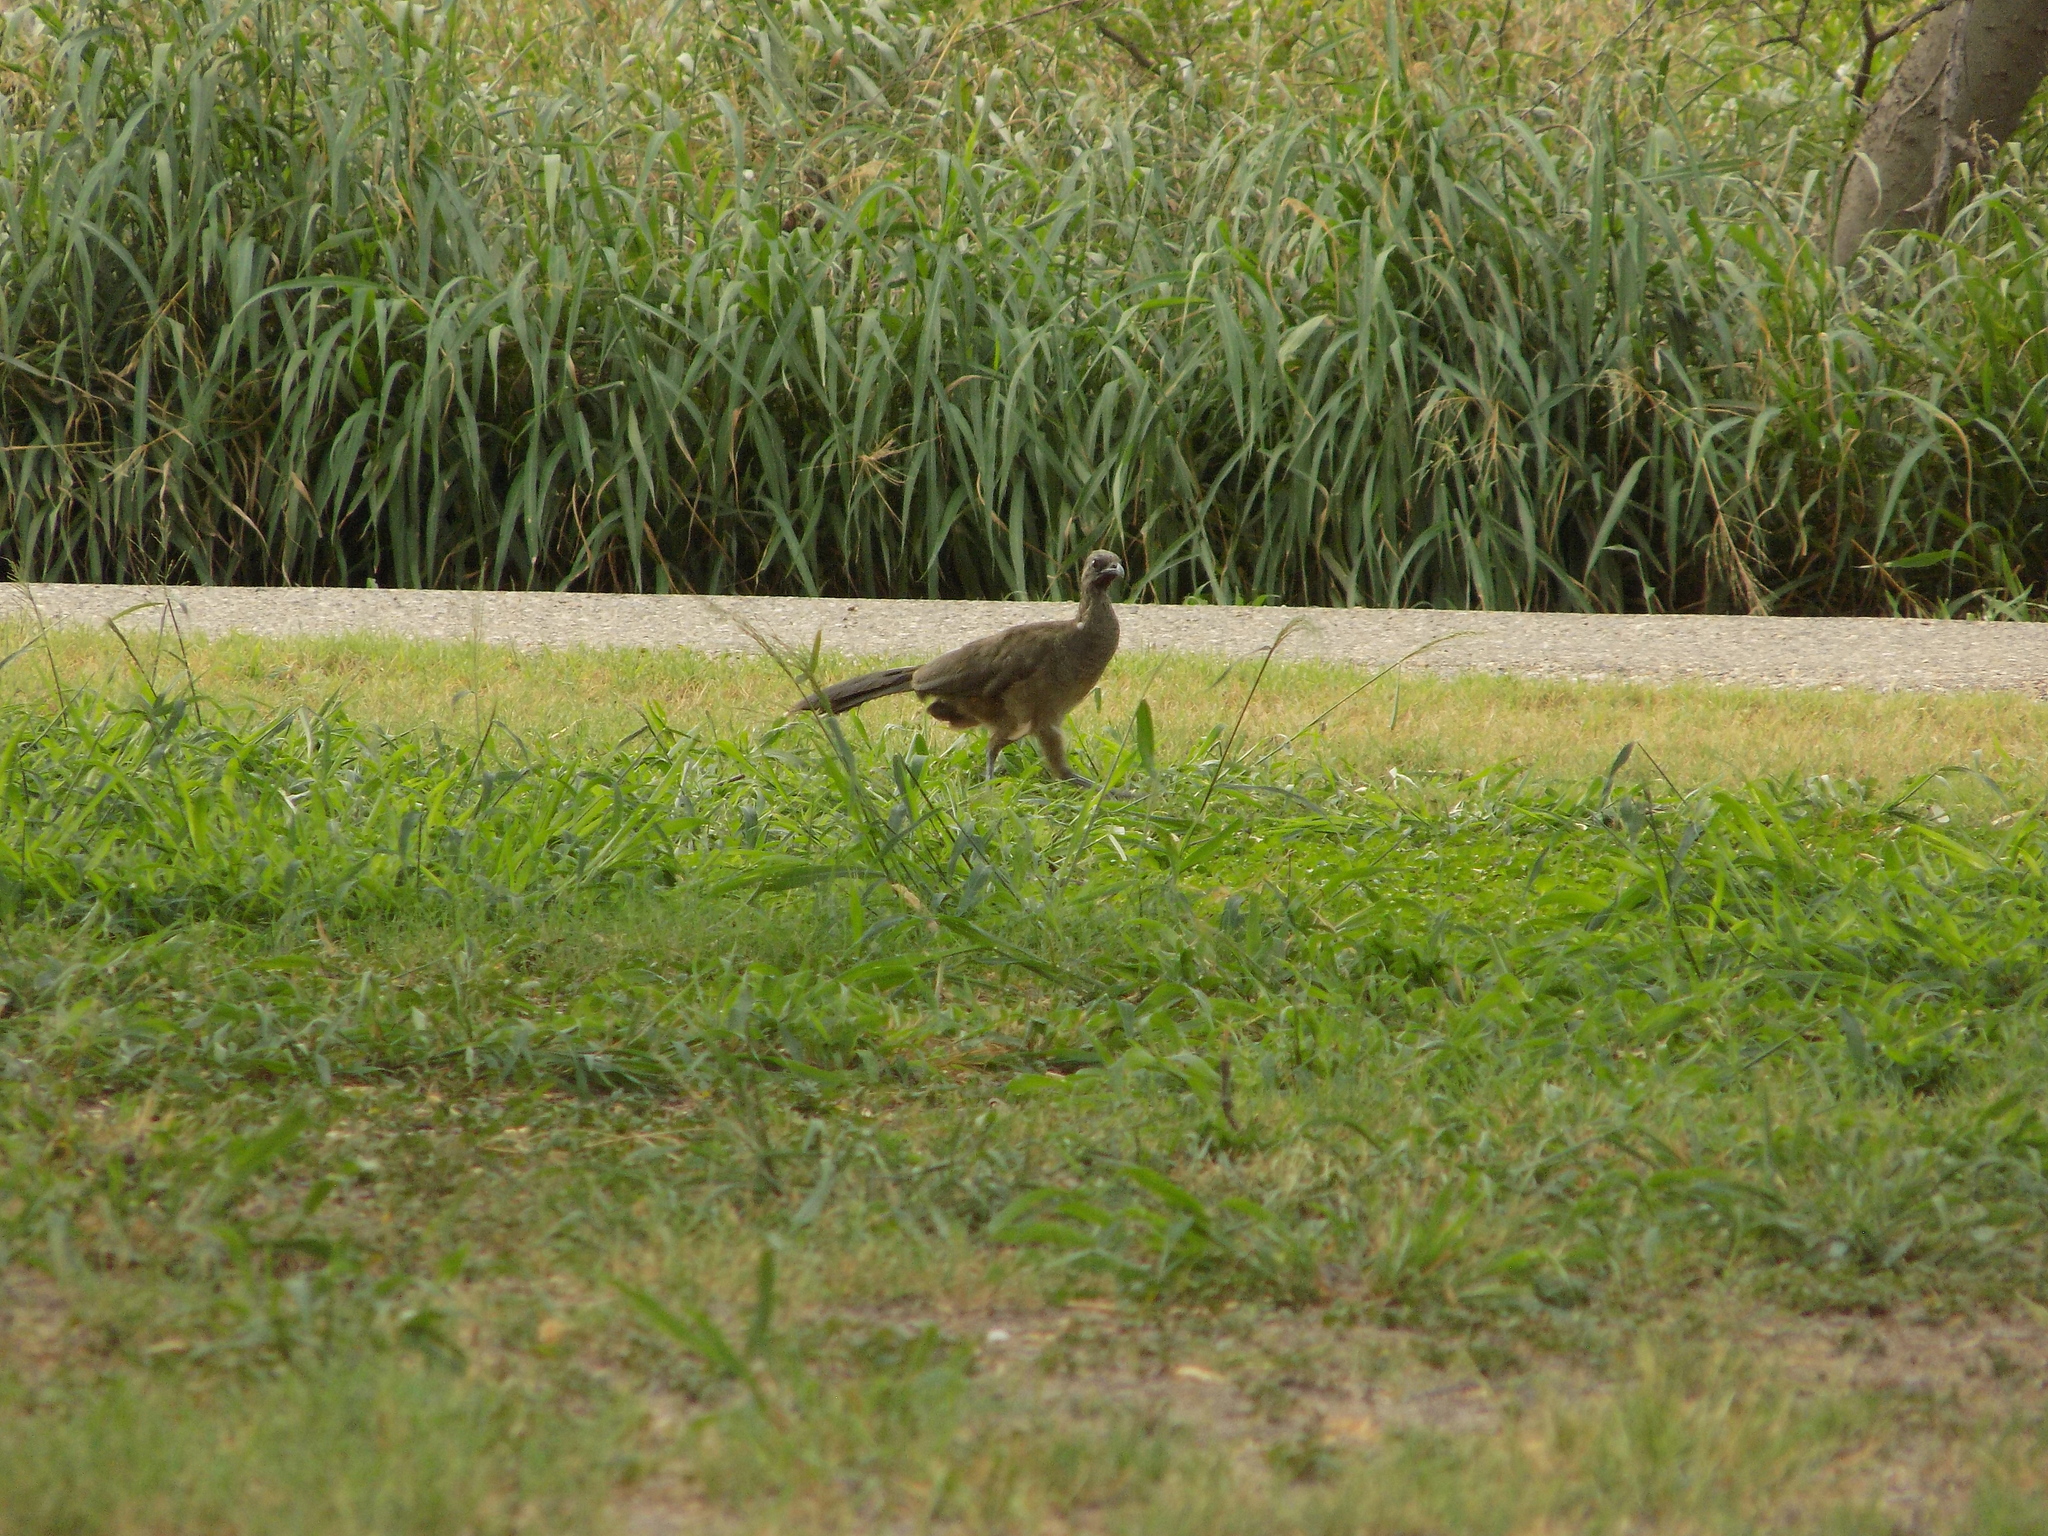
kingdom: Animalia
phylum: Chordata
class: Aves
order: Galliformes
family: Cracidae
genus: Ortalis
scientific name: Ortalis vetula
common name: Plain chachalaca
